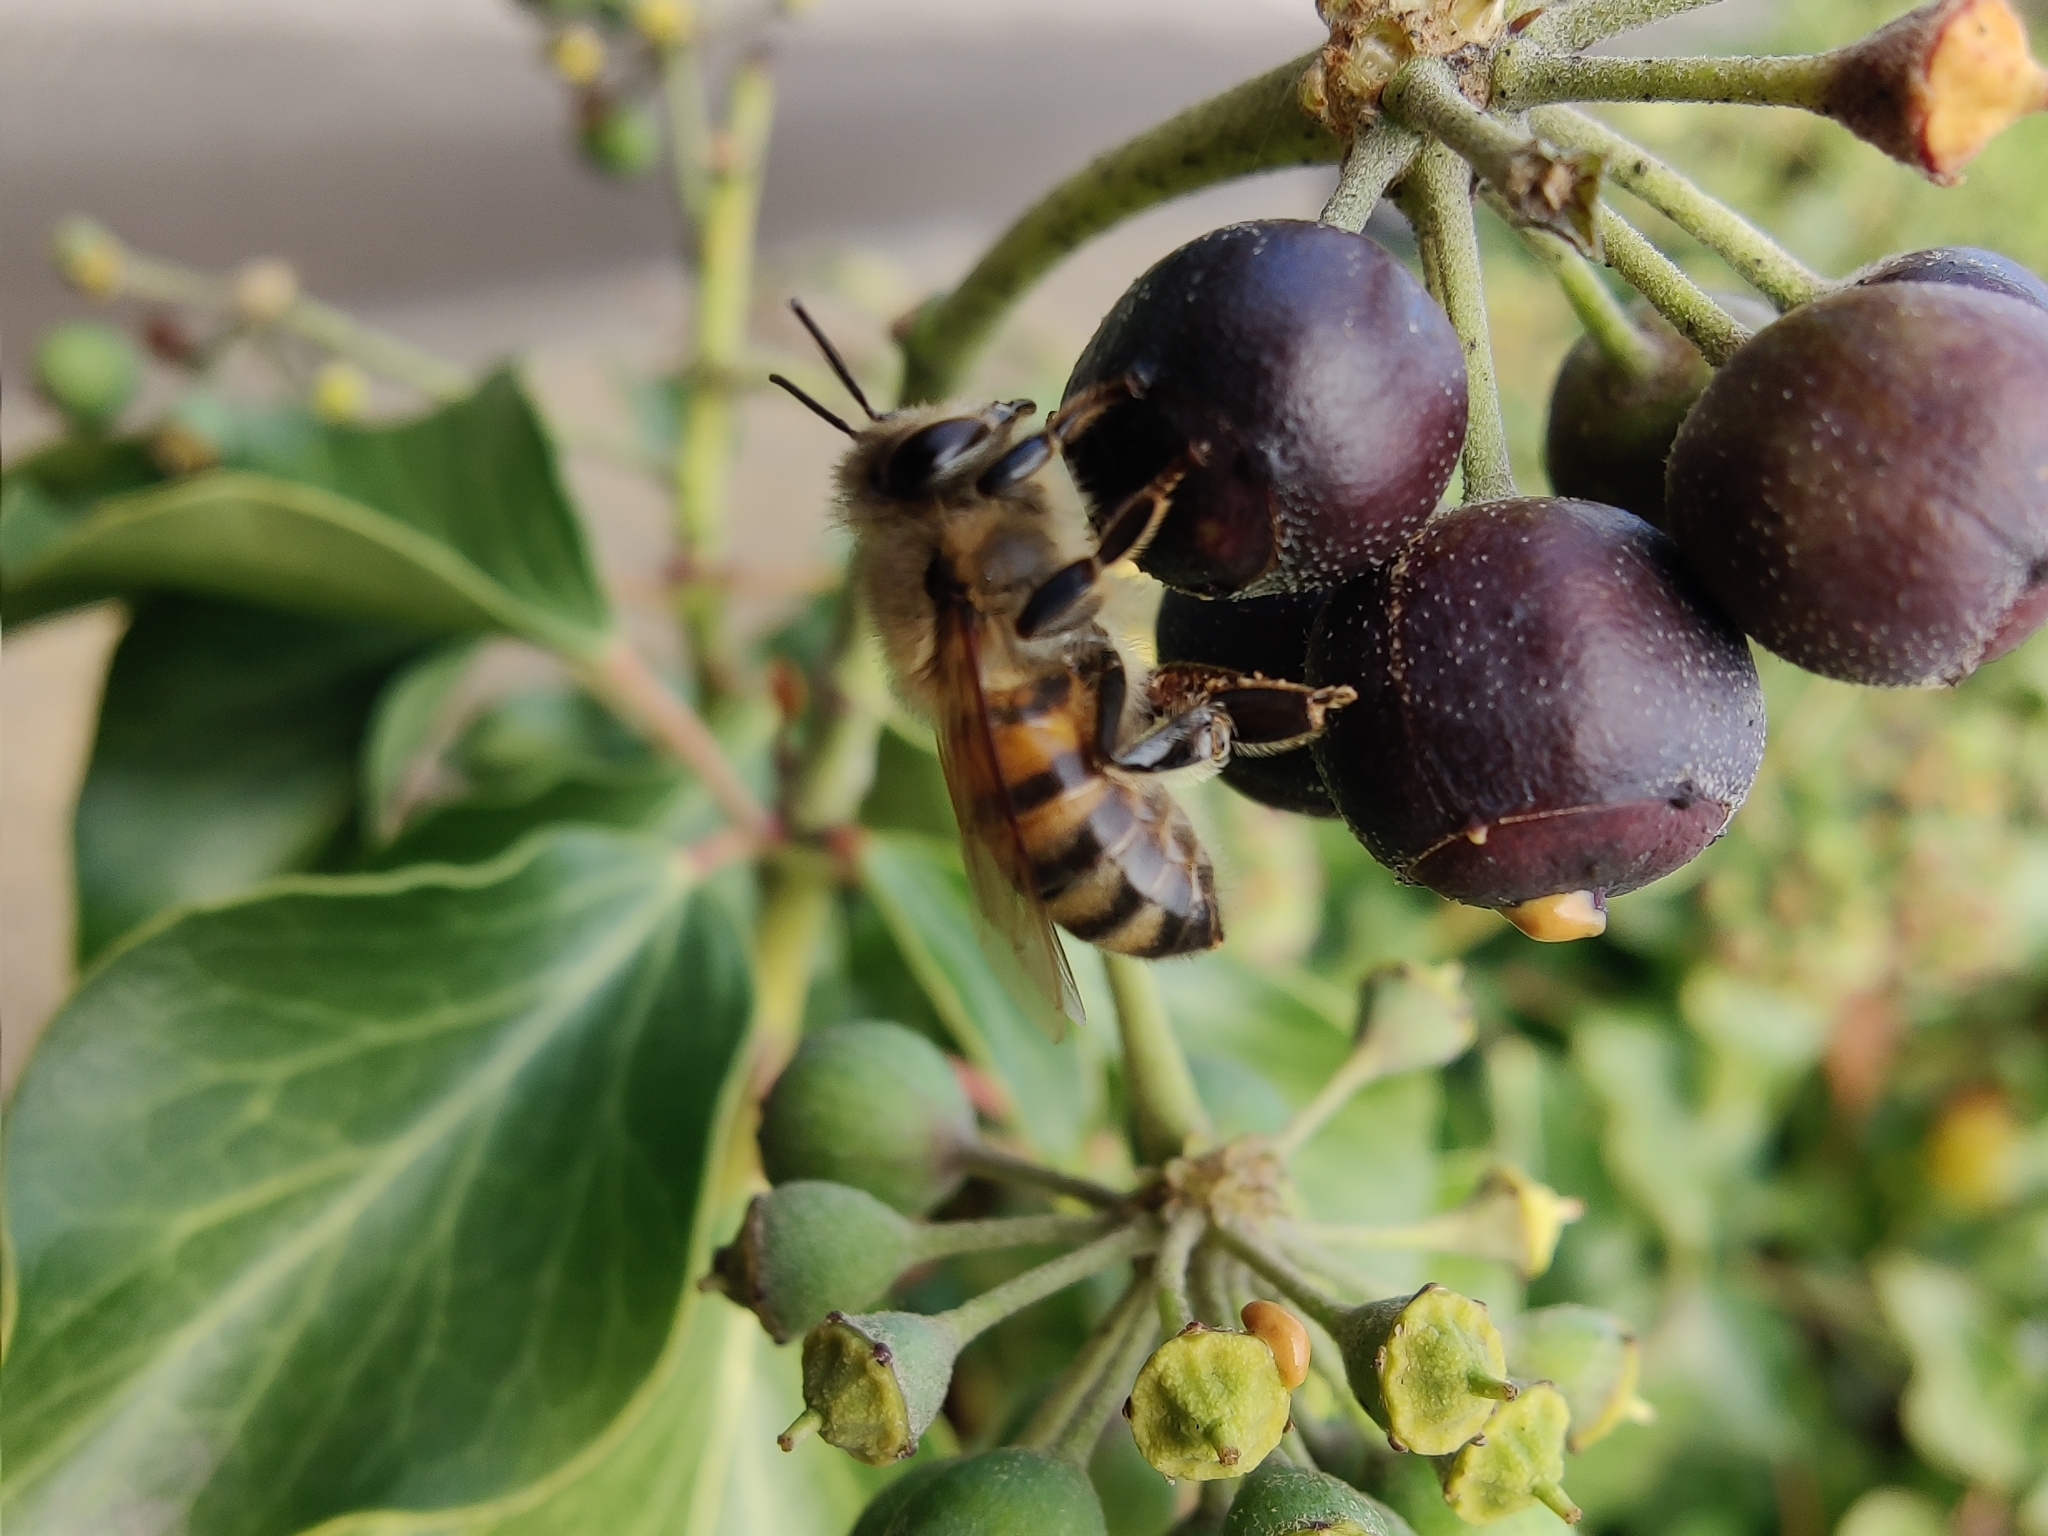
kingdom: Animalia
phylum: Arthropoda
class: Insecta
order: Hymenoptera
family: Apidae
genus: Apis
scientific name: Apis mellifera
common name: Honey bee
